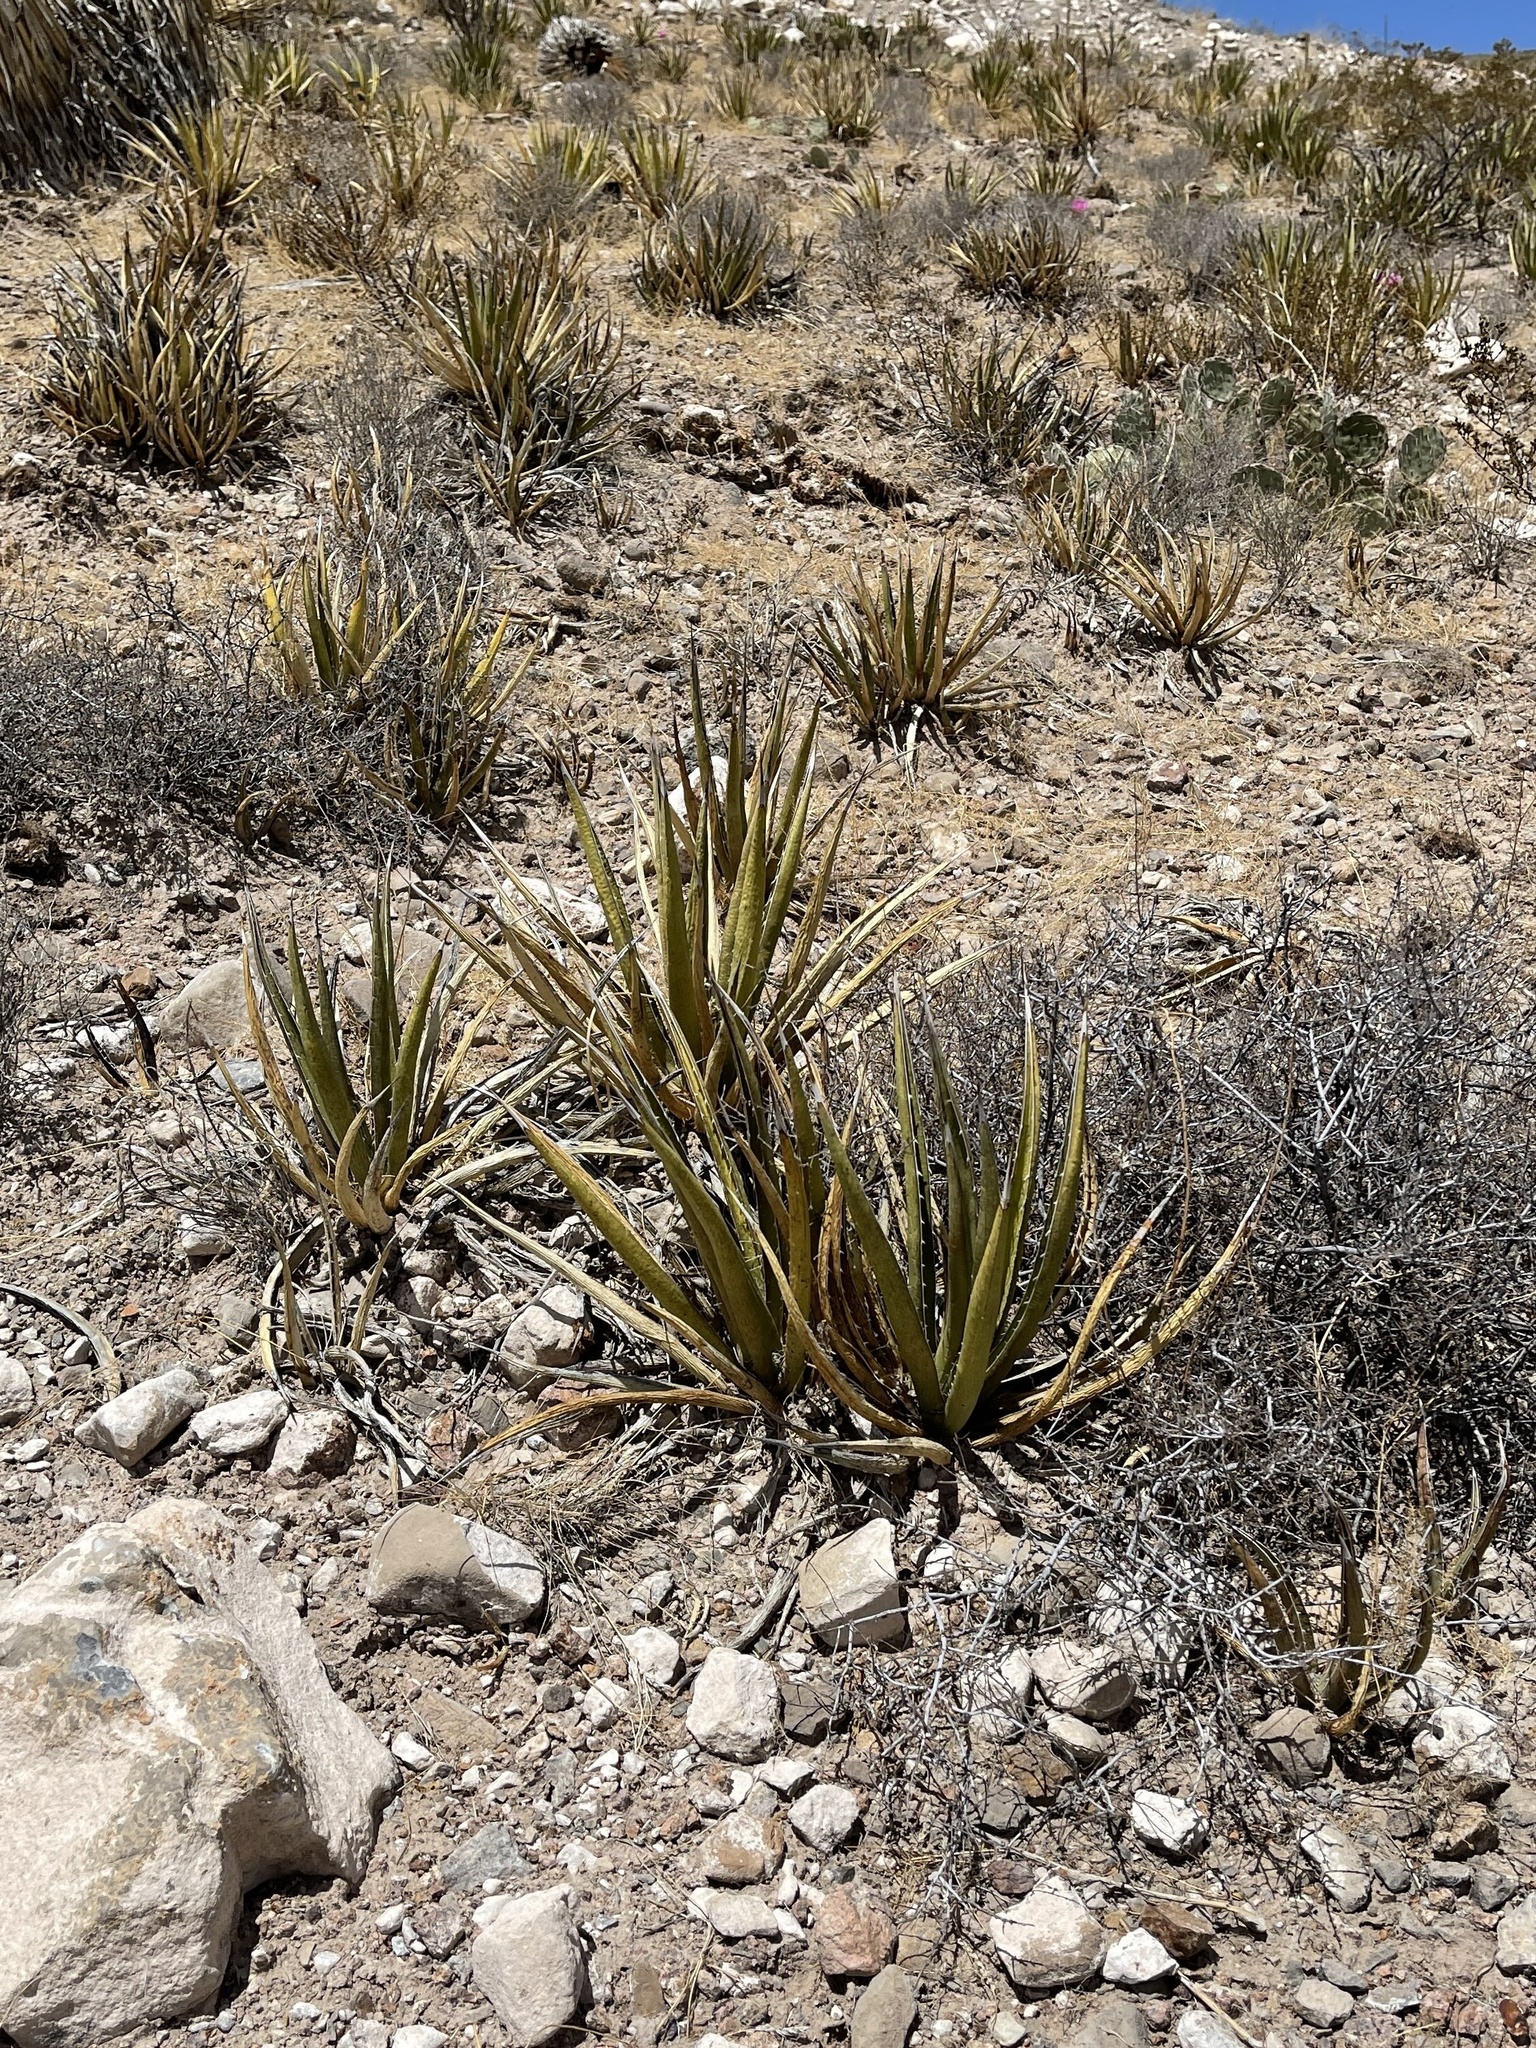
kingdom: Plantae
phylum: Tracheophyta
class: Liliopsida
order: Asparagales
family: Asparagaceae
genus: Agave
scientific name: Agave lechuguilla
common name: Lecheguilla agave
